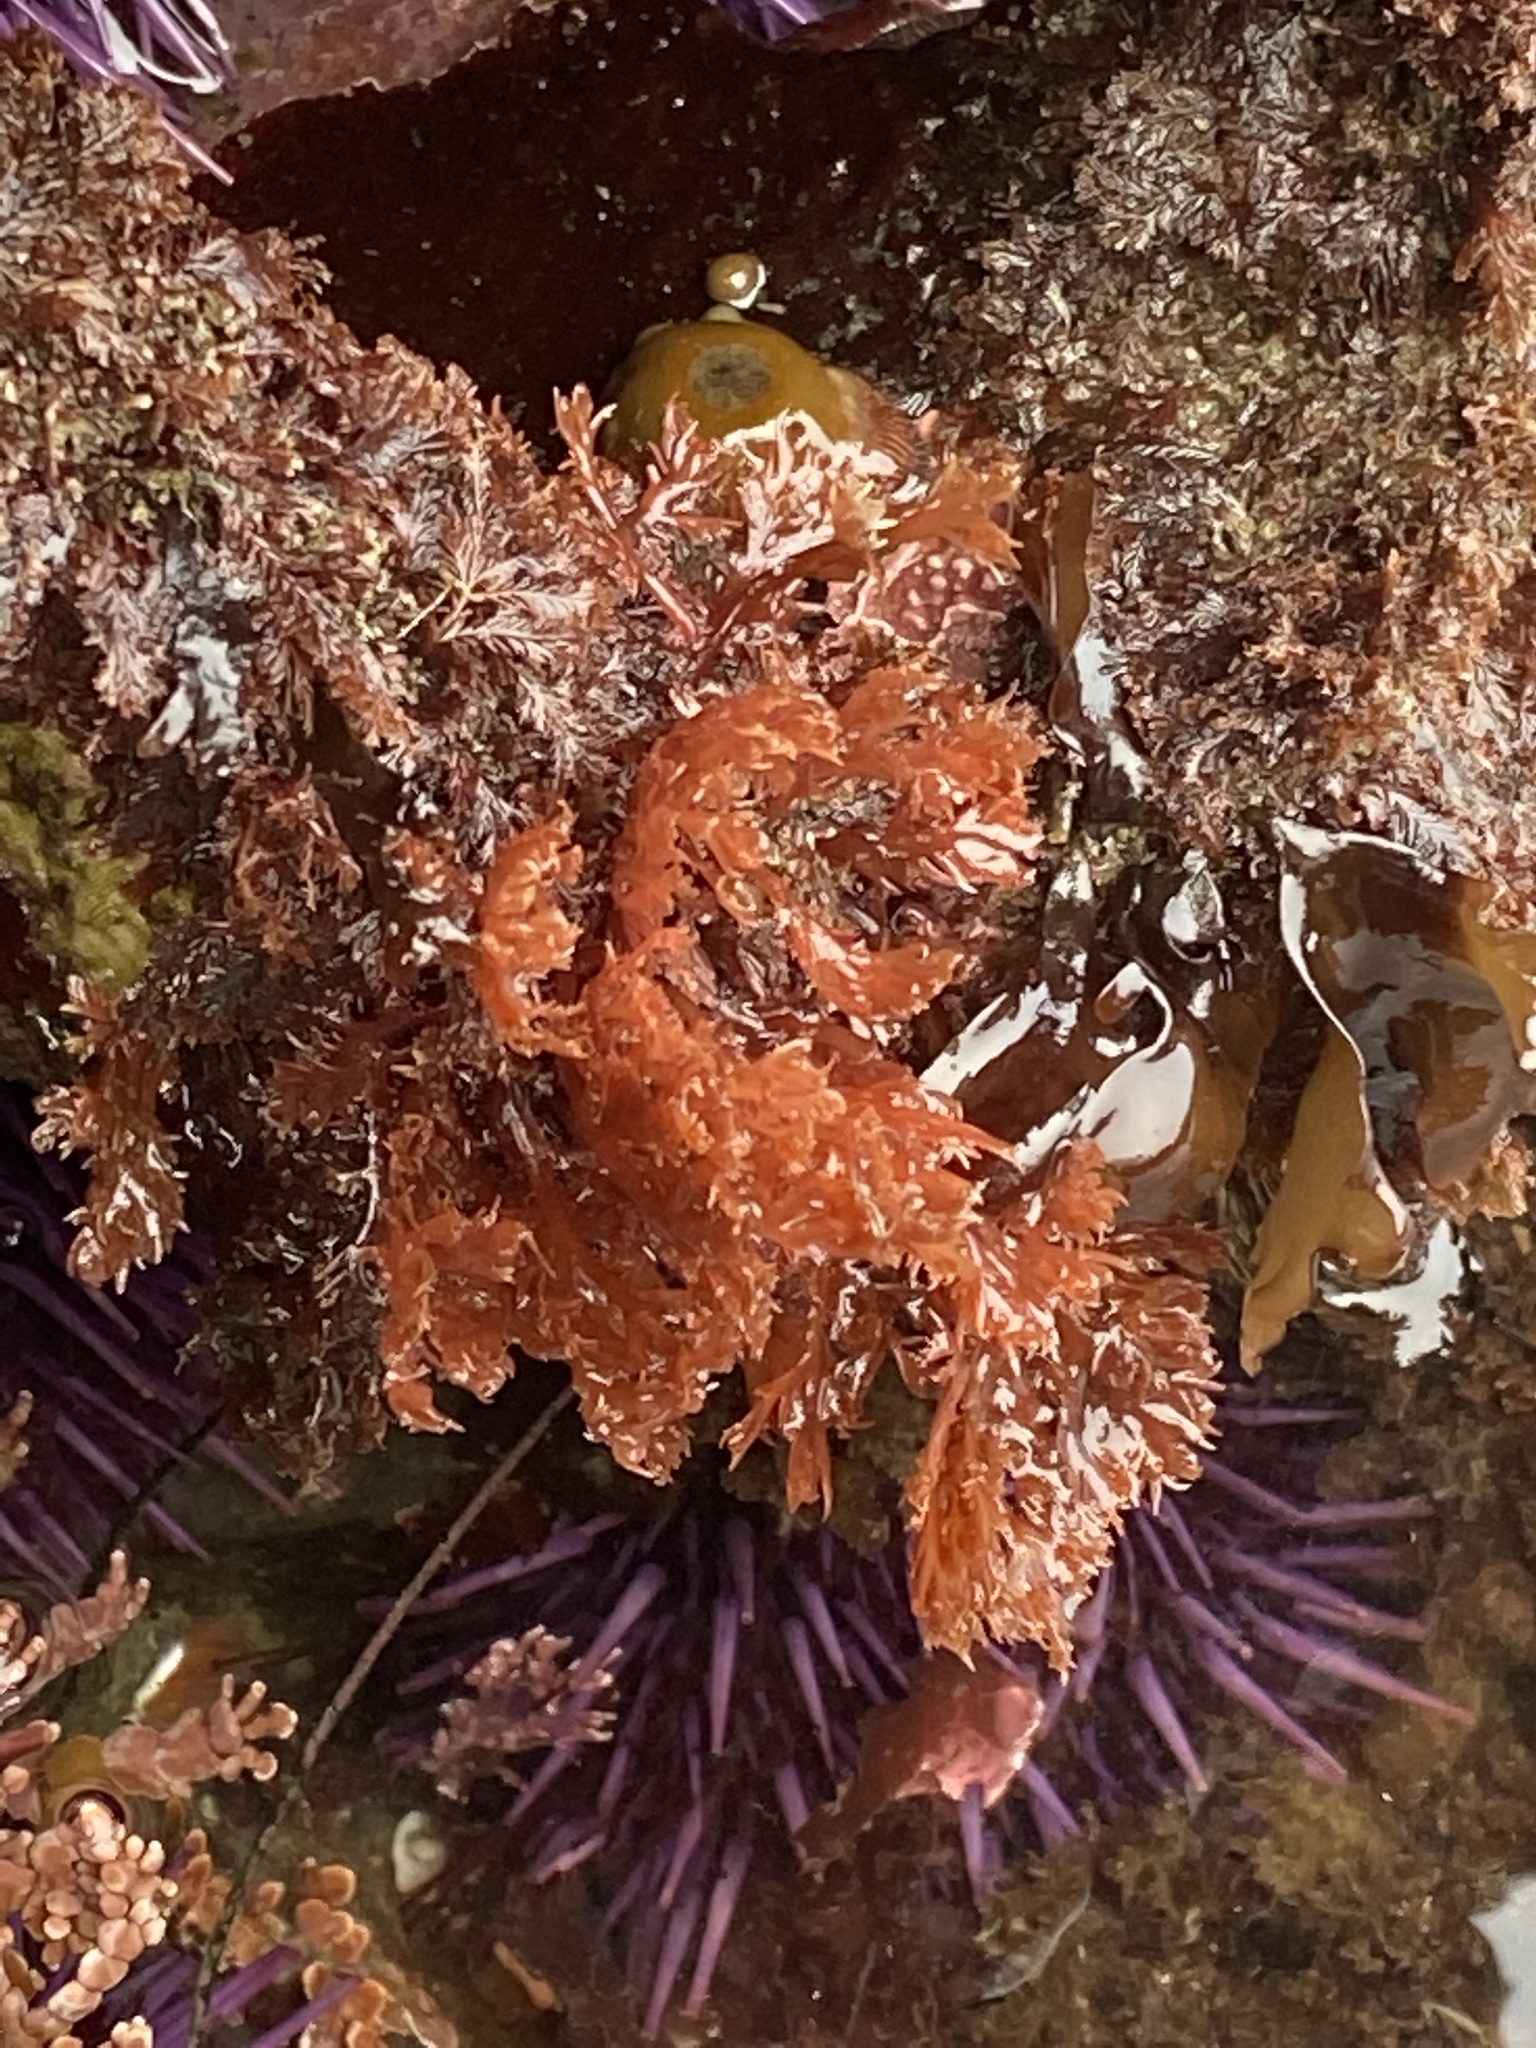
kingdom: Plantae
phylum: Rhodophyta
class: Florideophyceae
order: Plocamiales
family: Plocamiaceae
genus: Plocamium
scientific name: Plocamium cartilagineum
